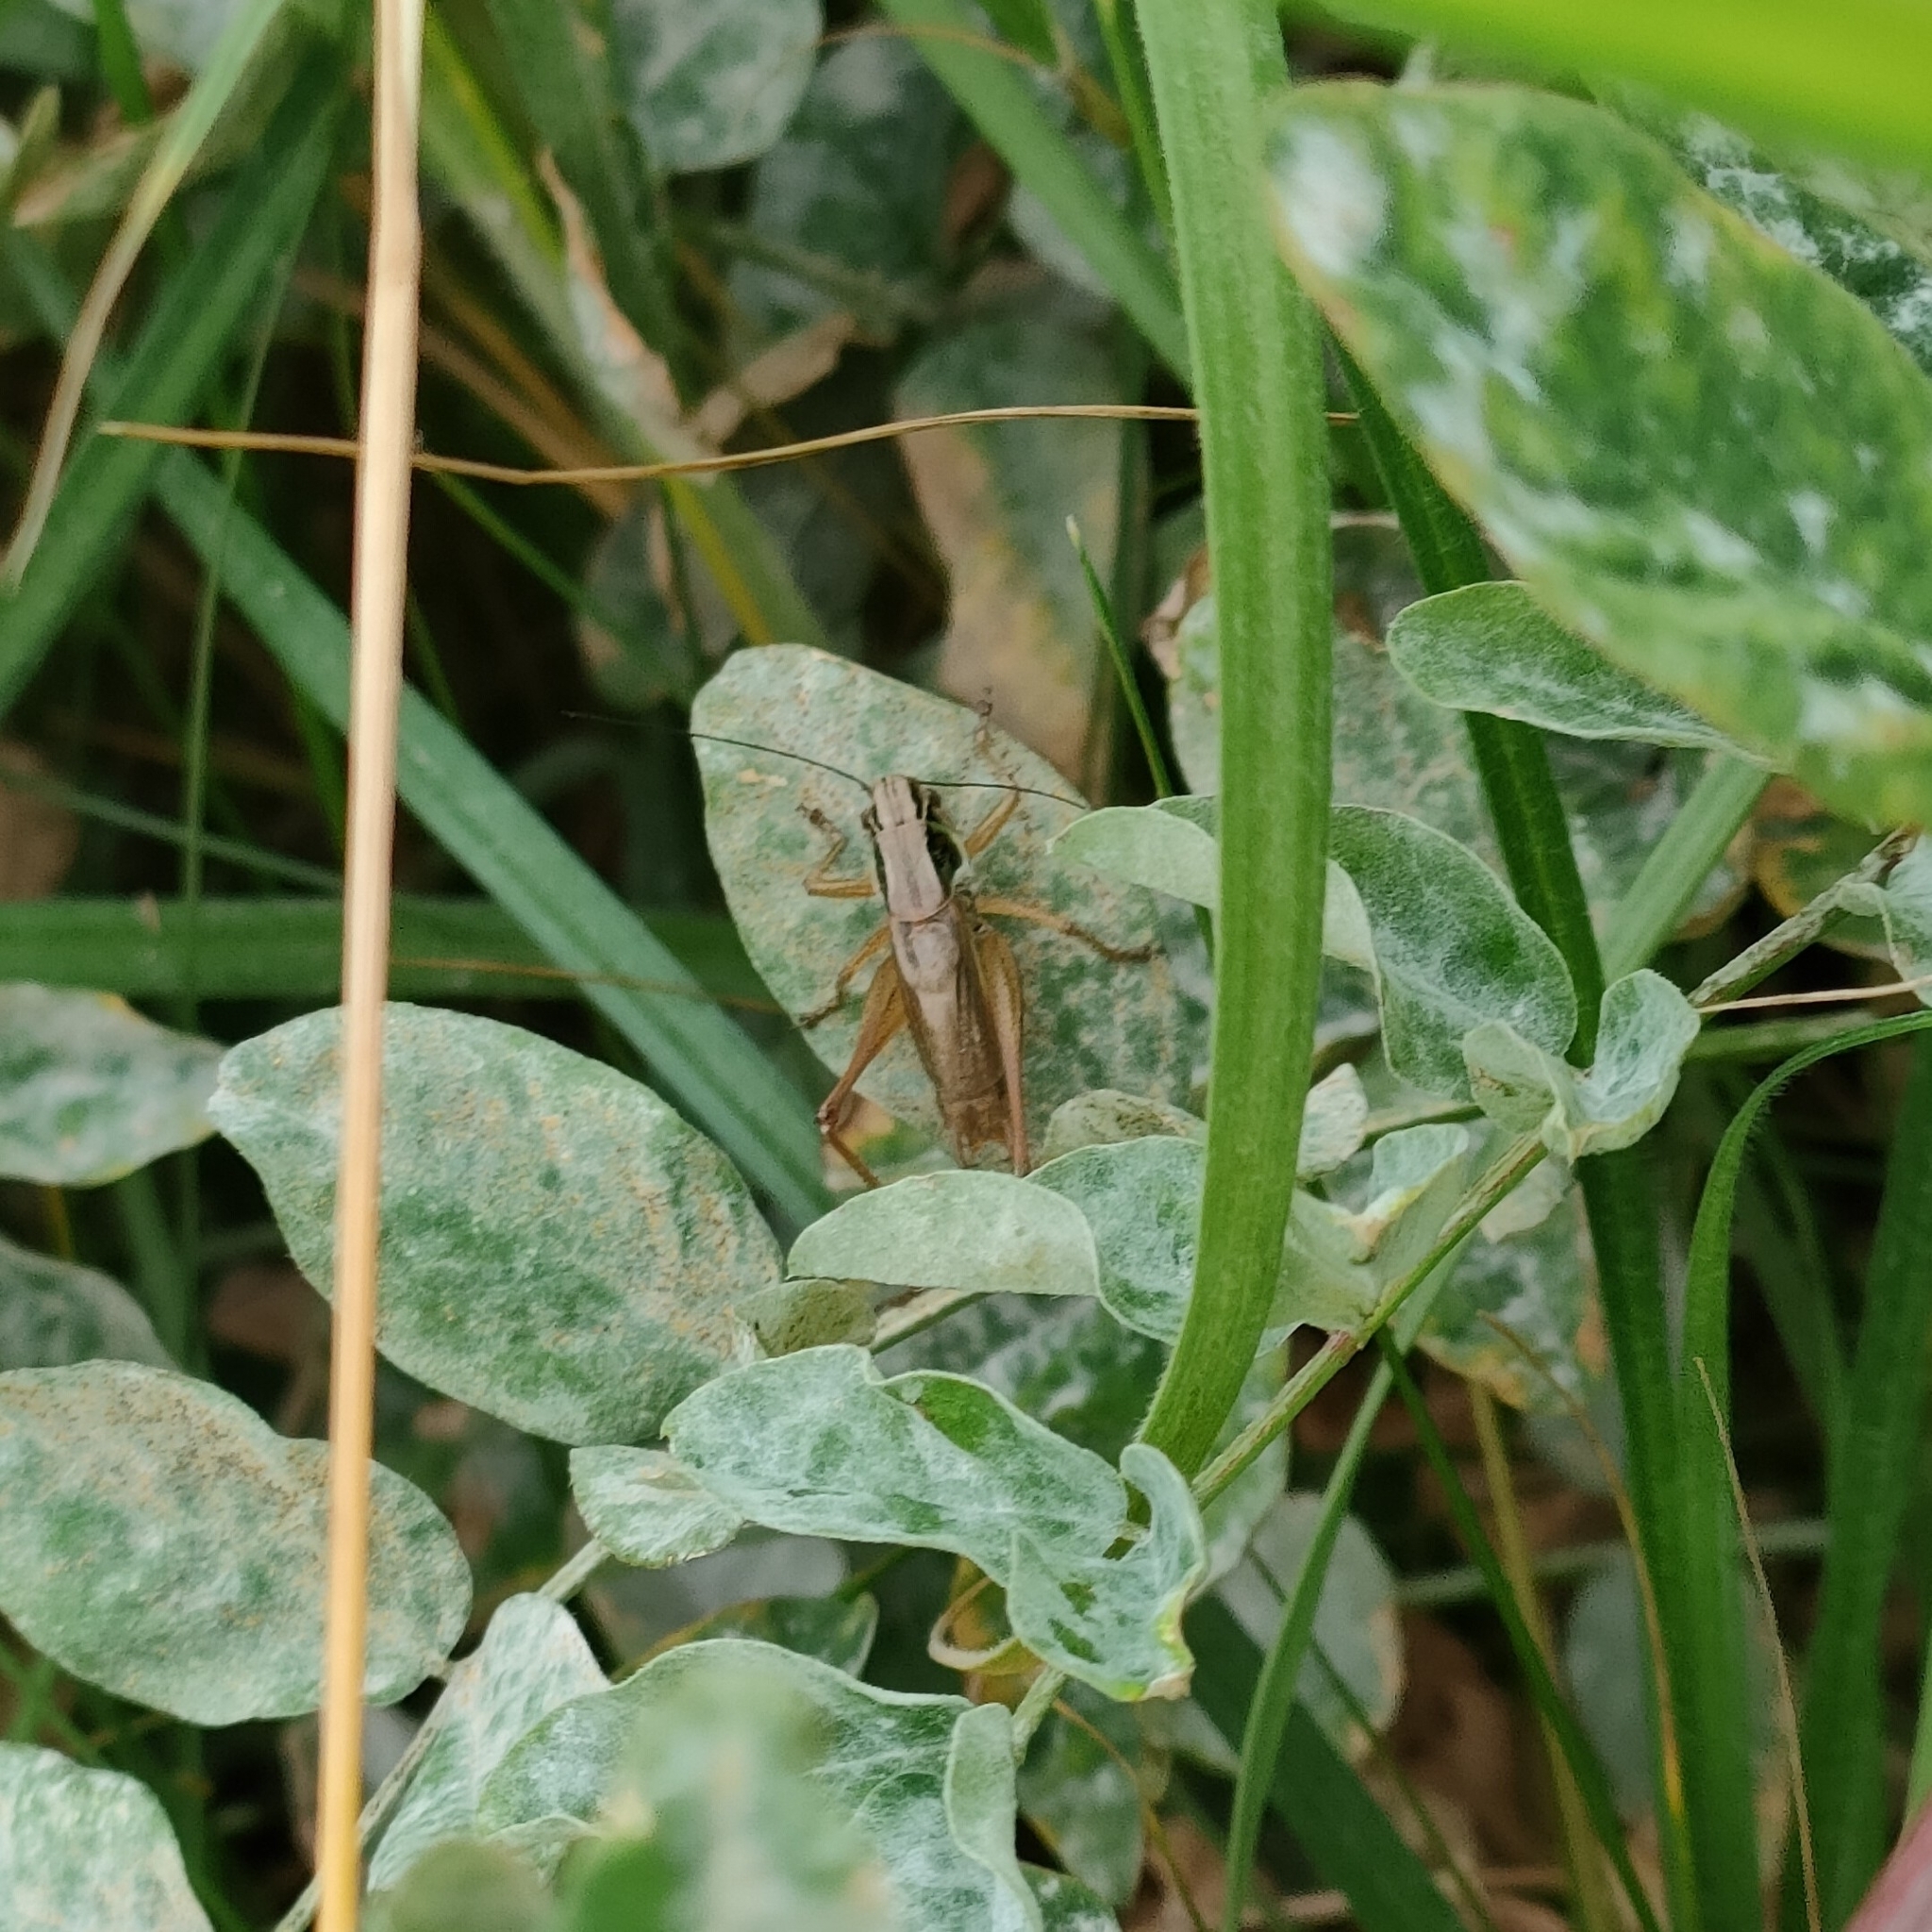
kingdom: Animalia
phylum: Arthropoda
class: Insecta
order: Orthoptera
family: Tettigoniidae
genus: Roeseliana
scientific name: Roeseliana roeselii
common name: Roesel's bush cricket
